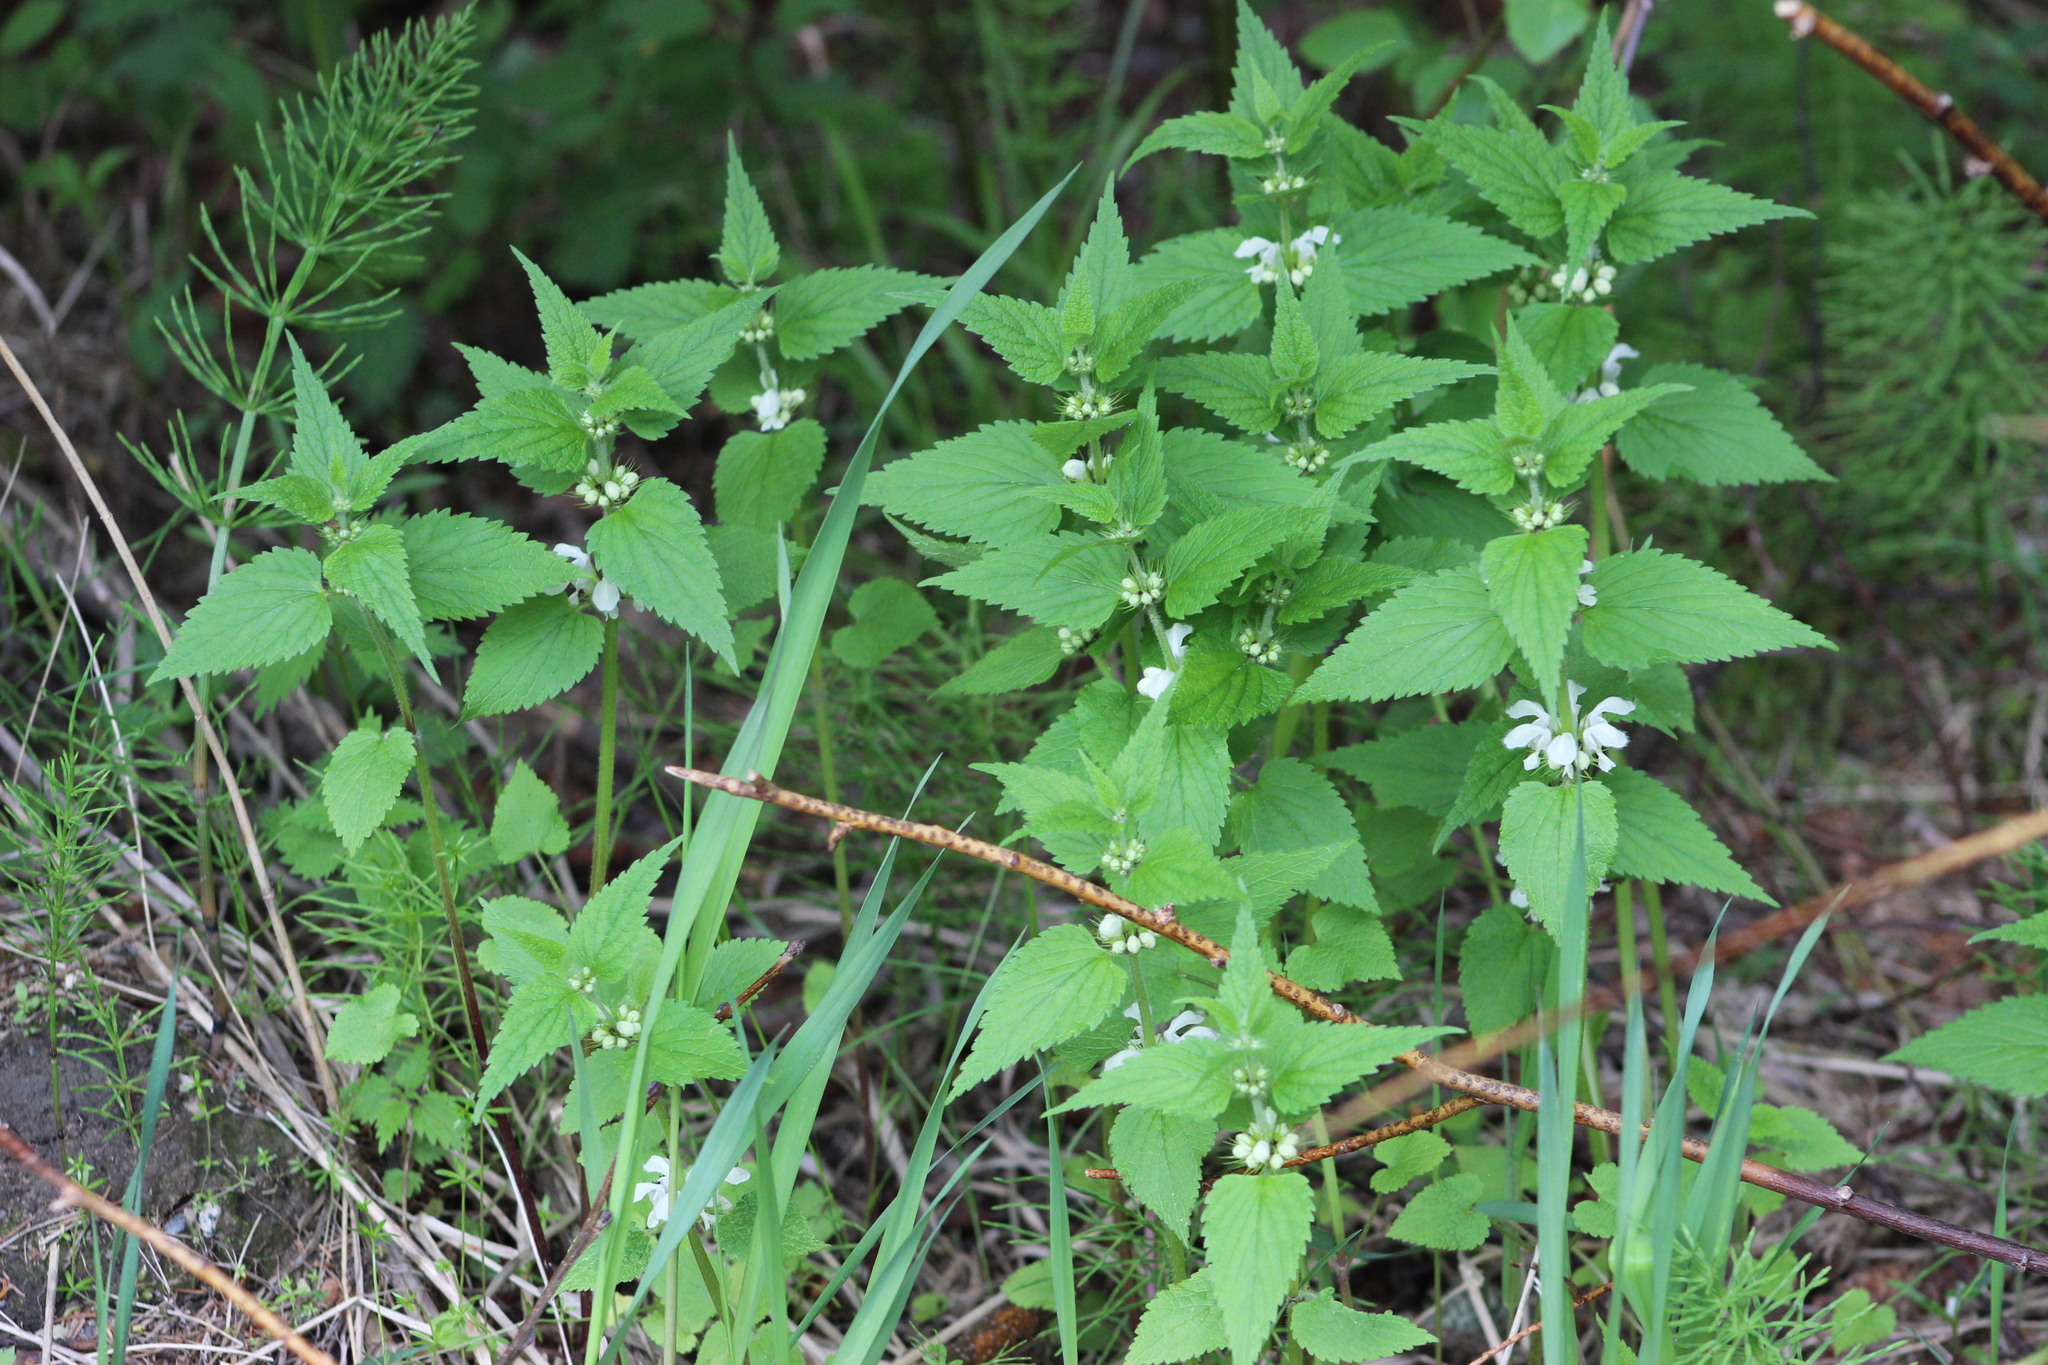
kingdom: Plantae
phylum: Tracheophyta
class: Magnoliopsida
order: Lamiales
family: Lamiaceae
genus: Lamium
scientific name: Lamium album
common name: White dead-nettle
